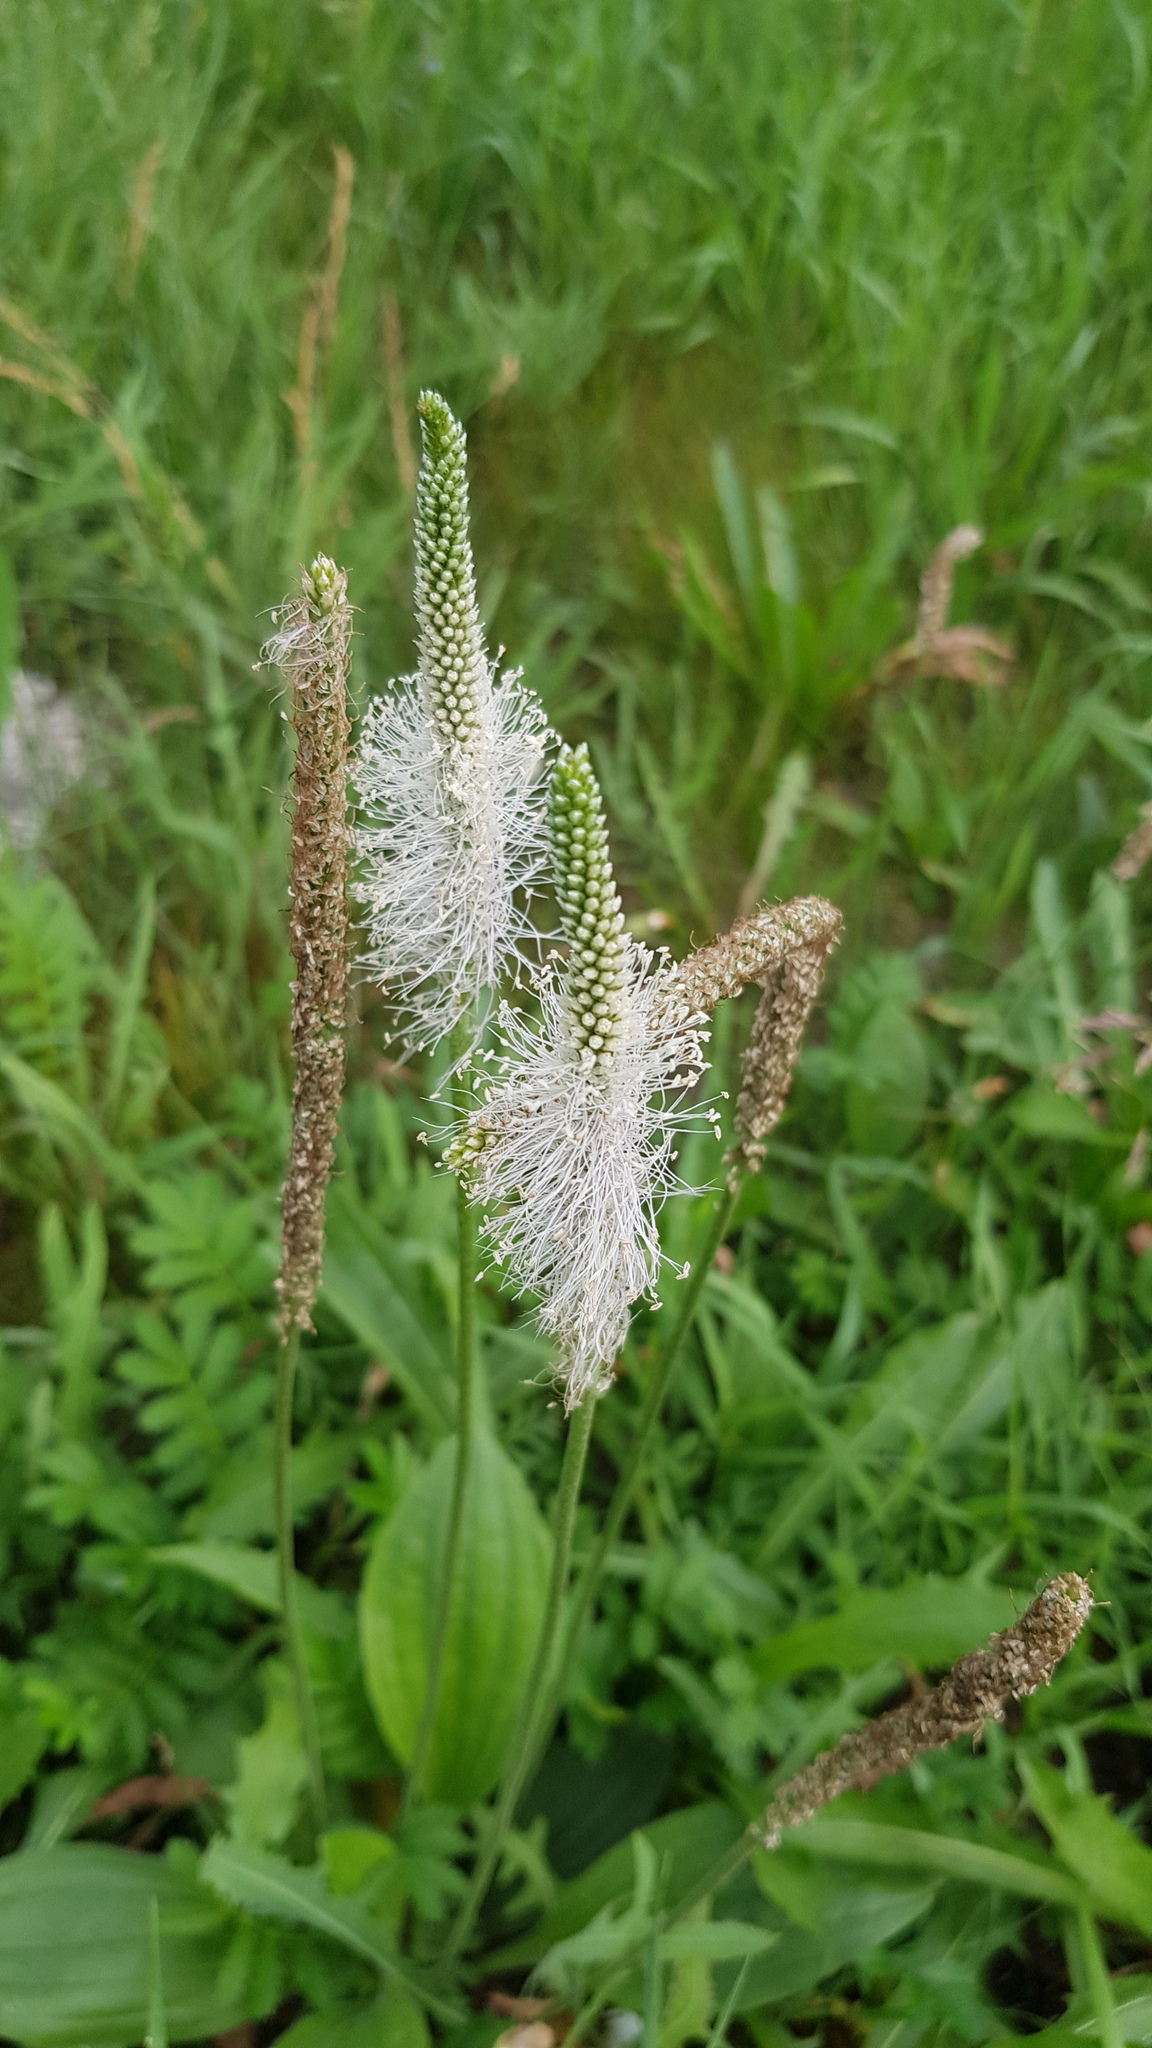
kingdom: Plantae
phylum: Tracheophyta
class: Magnoliopsida
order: Lamiales
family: Plantaginaceae
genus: Plantago
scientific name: Plantago media
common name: Hoary plantain
